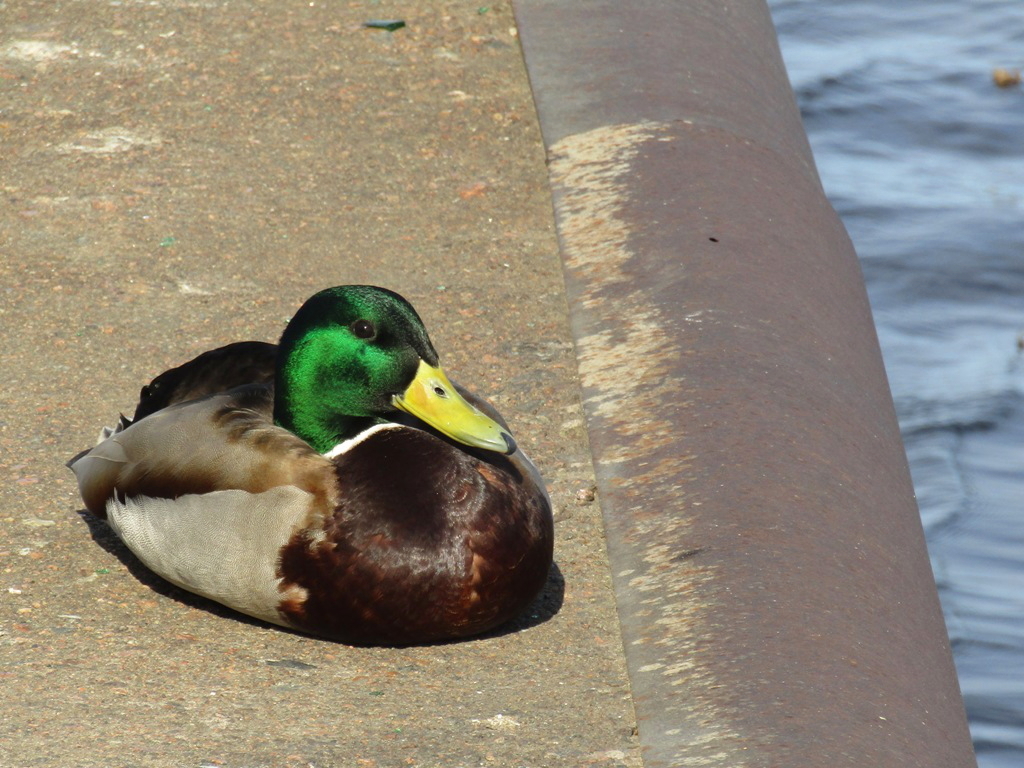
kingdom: Animalia
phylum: Chordata
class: Aves
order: Anseriformes
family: Anatidae
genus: Anas
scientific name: Anas platyrhynchos
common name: Mallard
